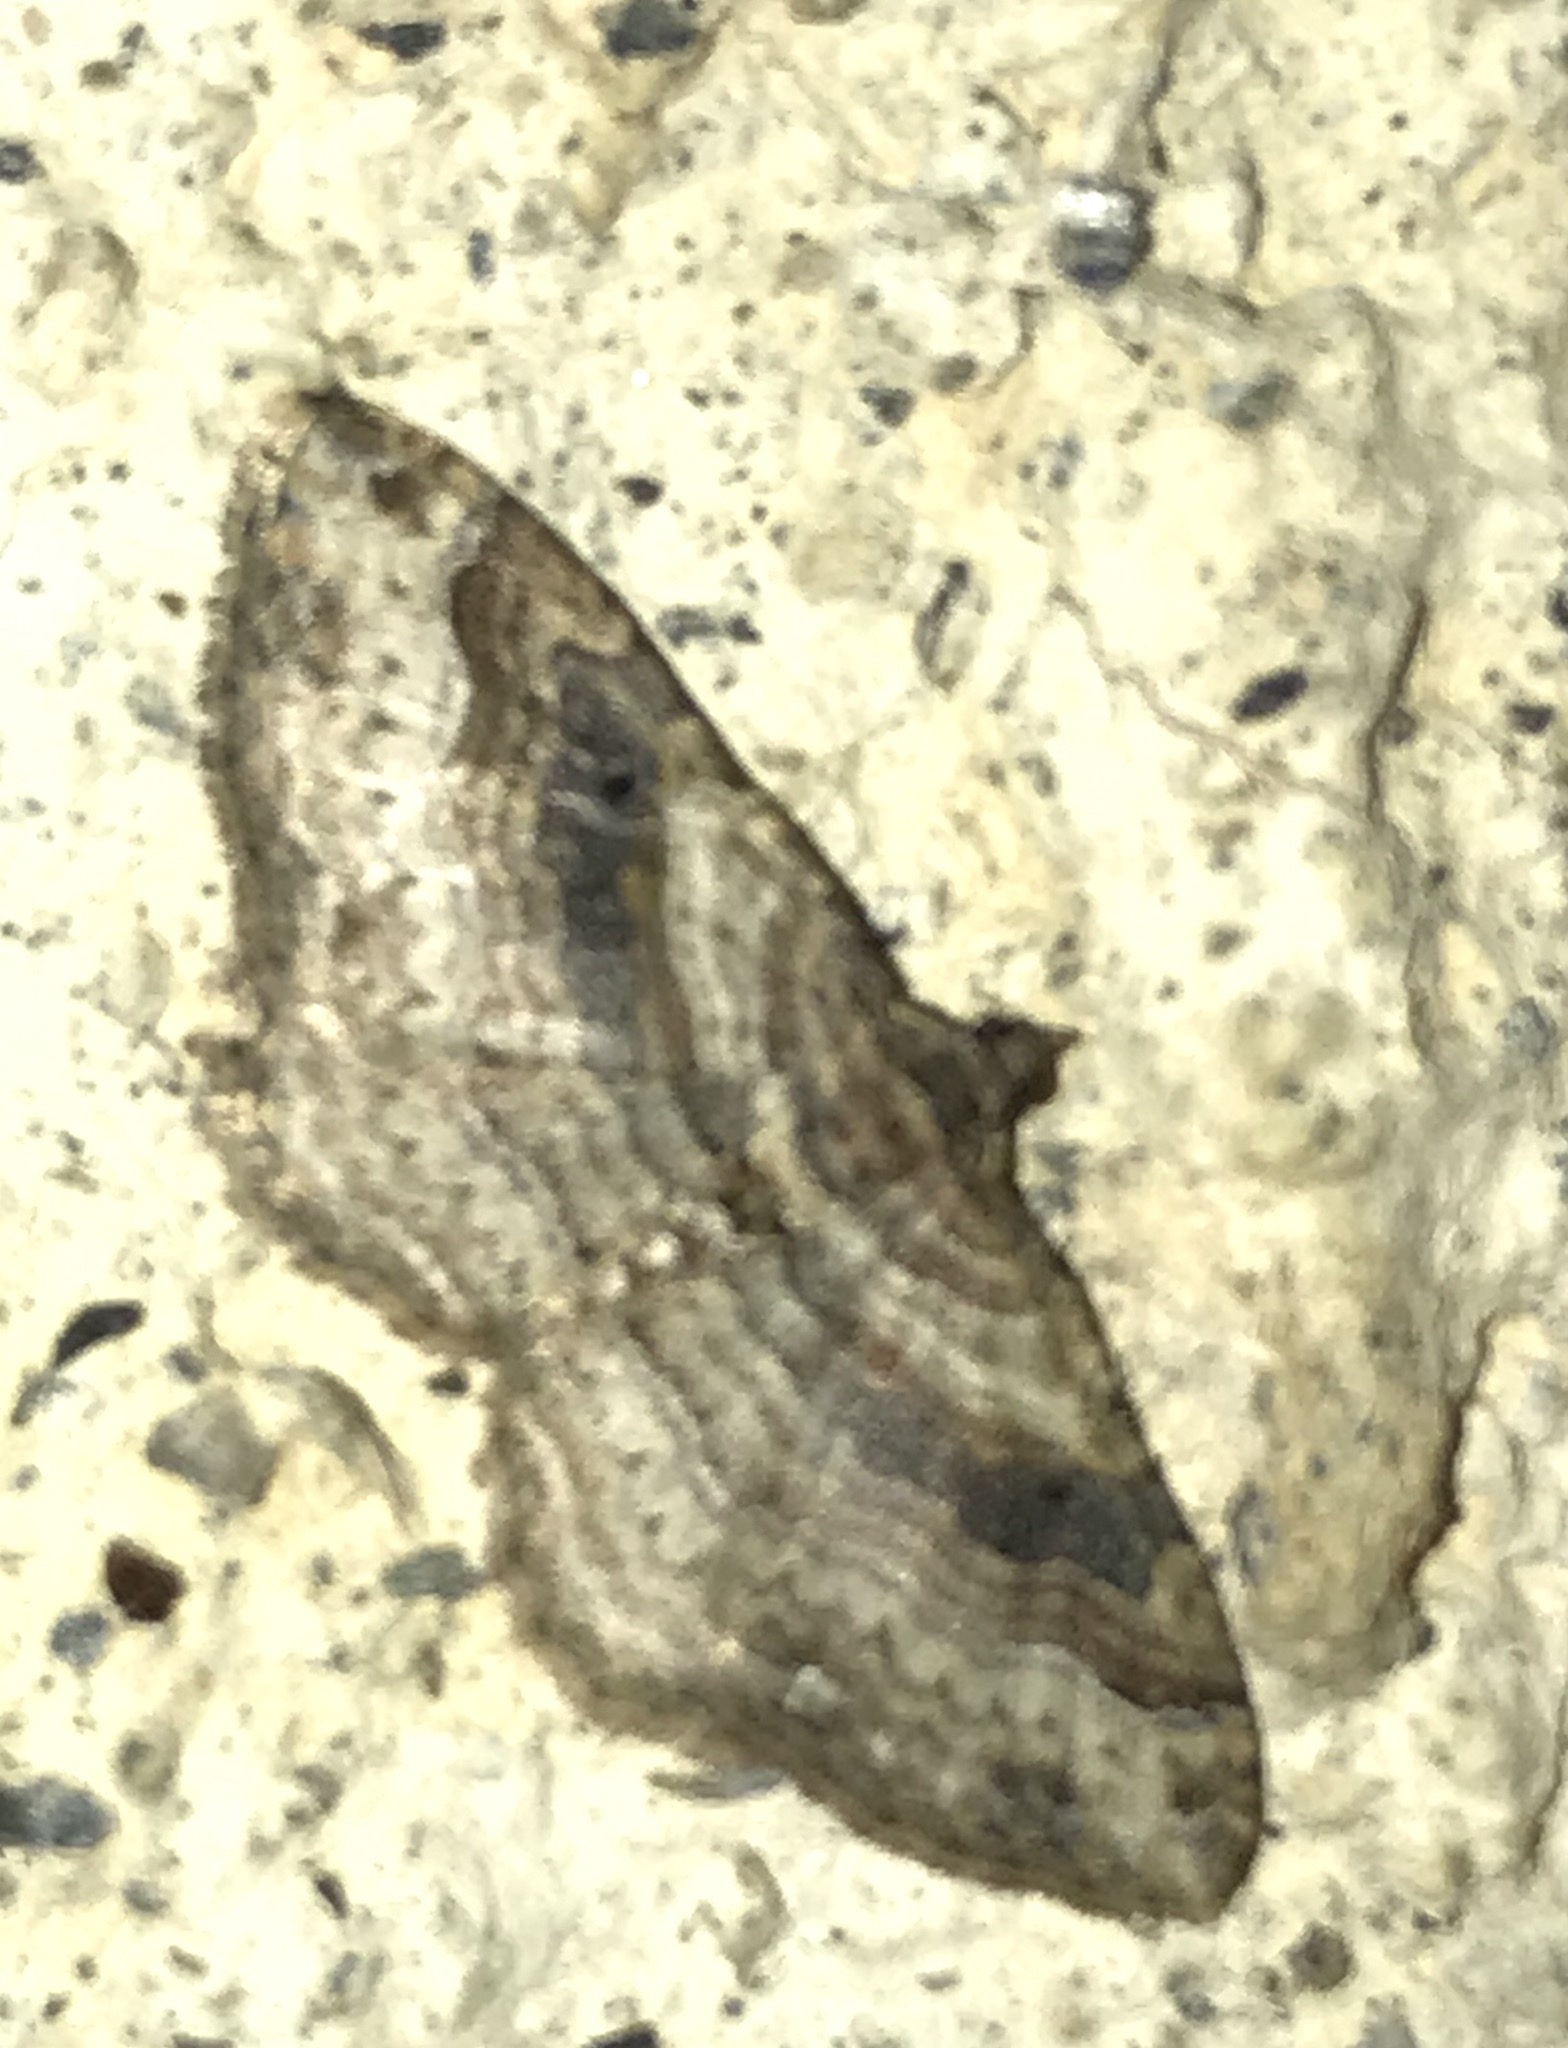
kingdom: Animalia
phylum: Arthropoda
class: Insecta
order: Lepidoptera
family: Geometridae
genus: Costaconvexa
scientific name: Costaconvexa centrostrigaria
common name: Bent-line carpet
